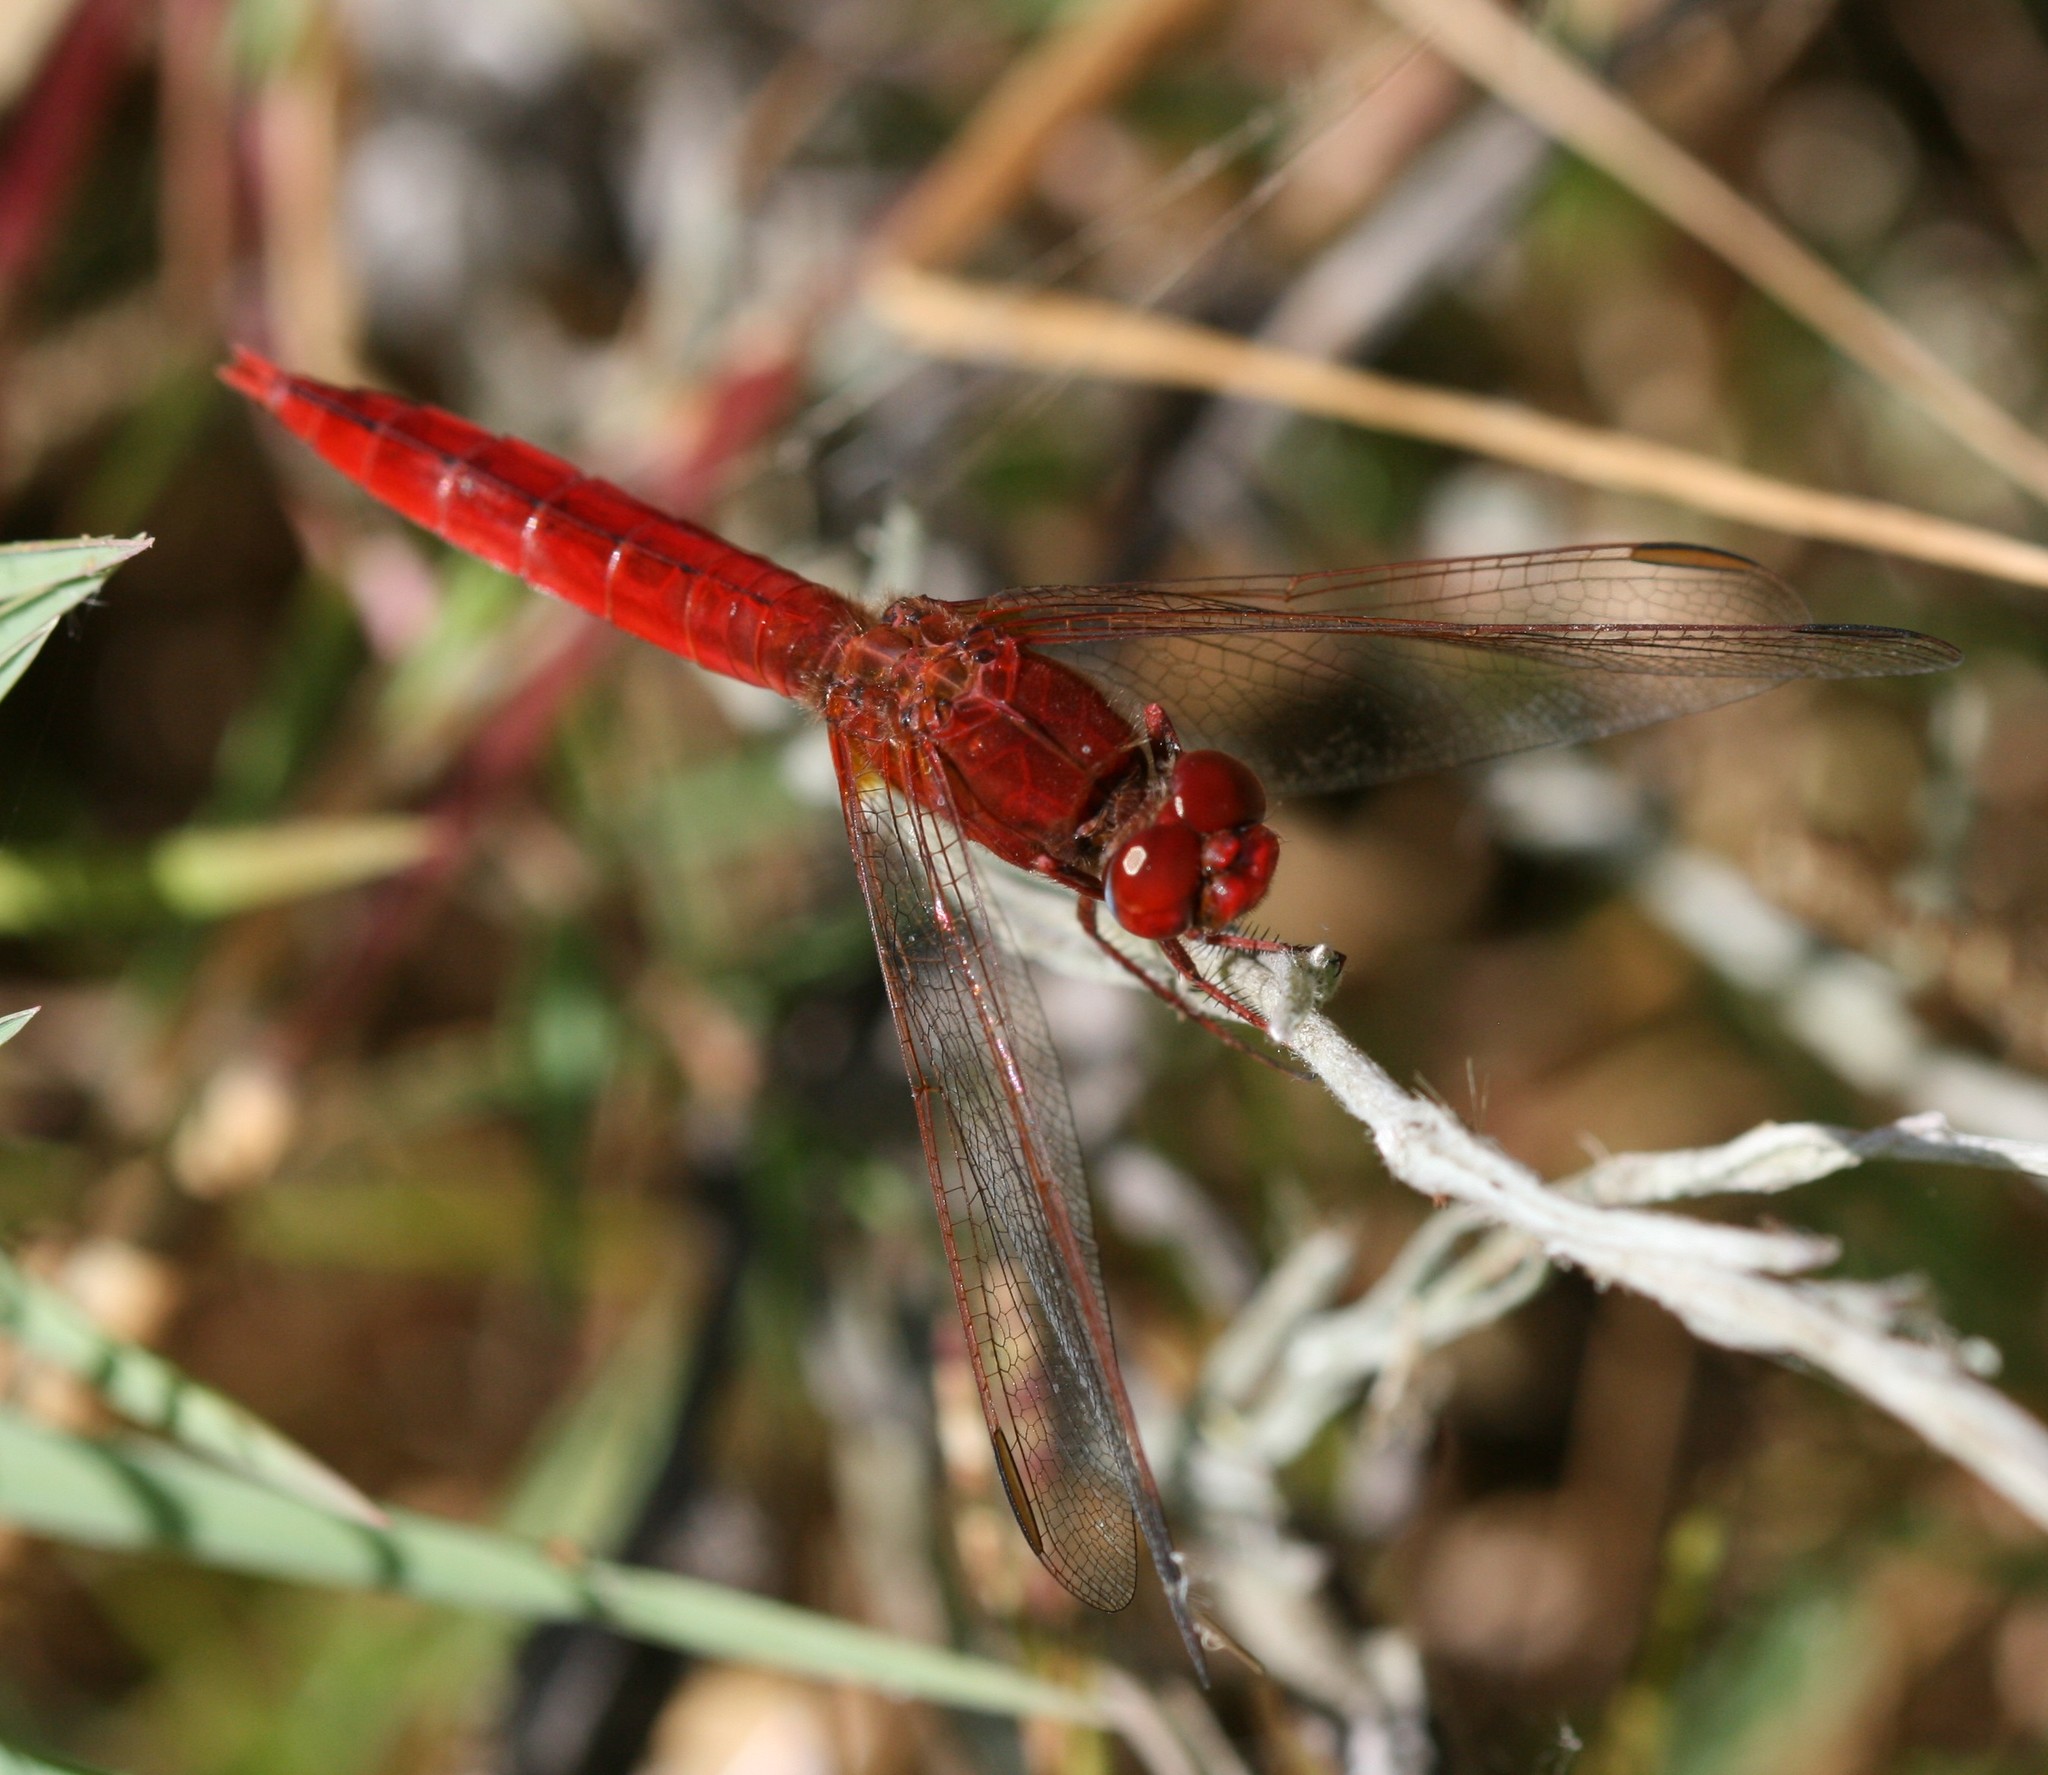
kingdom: Animalia
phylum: Arthropoda
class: Insecta
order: Odonata
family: Libellulidae
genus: Crocothemis
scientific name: Crocothemis erythraea
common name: Scarlet dragonfly
